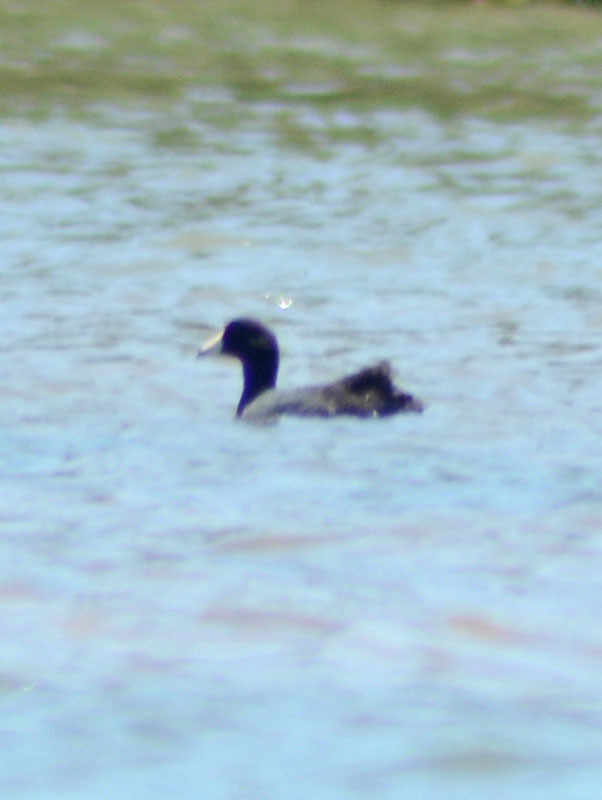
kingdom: Animalia
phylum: Chordata
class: Aves
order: Gruiformes
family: Rallidae
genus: Fulica
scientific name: Fulica americana
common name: American coot
